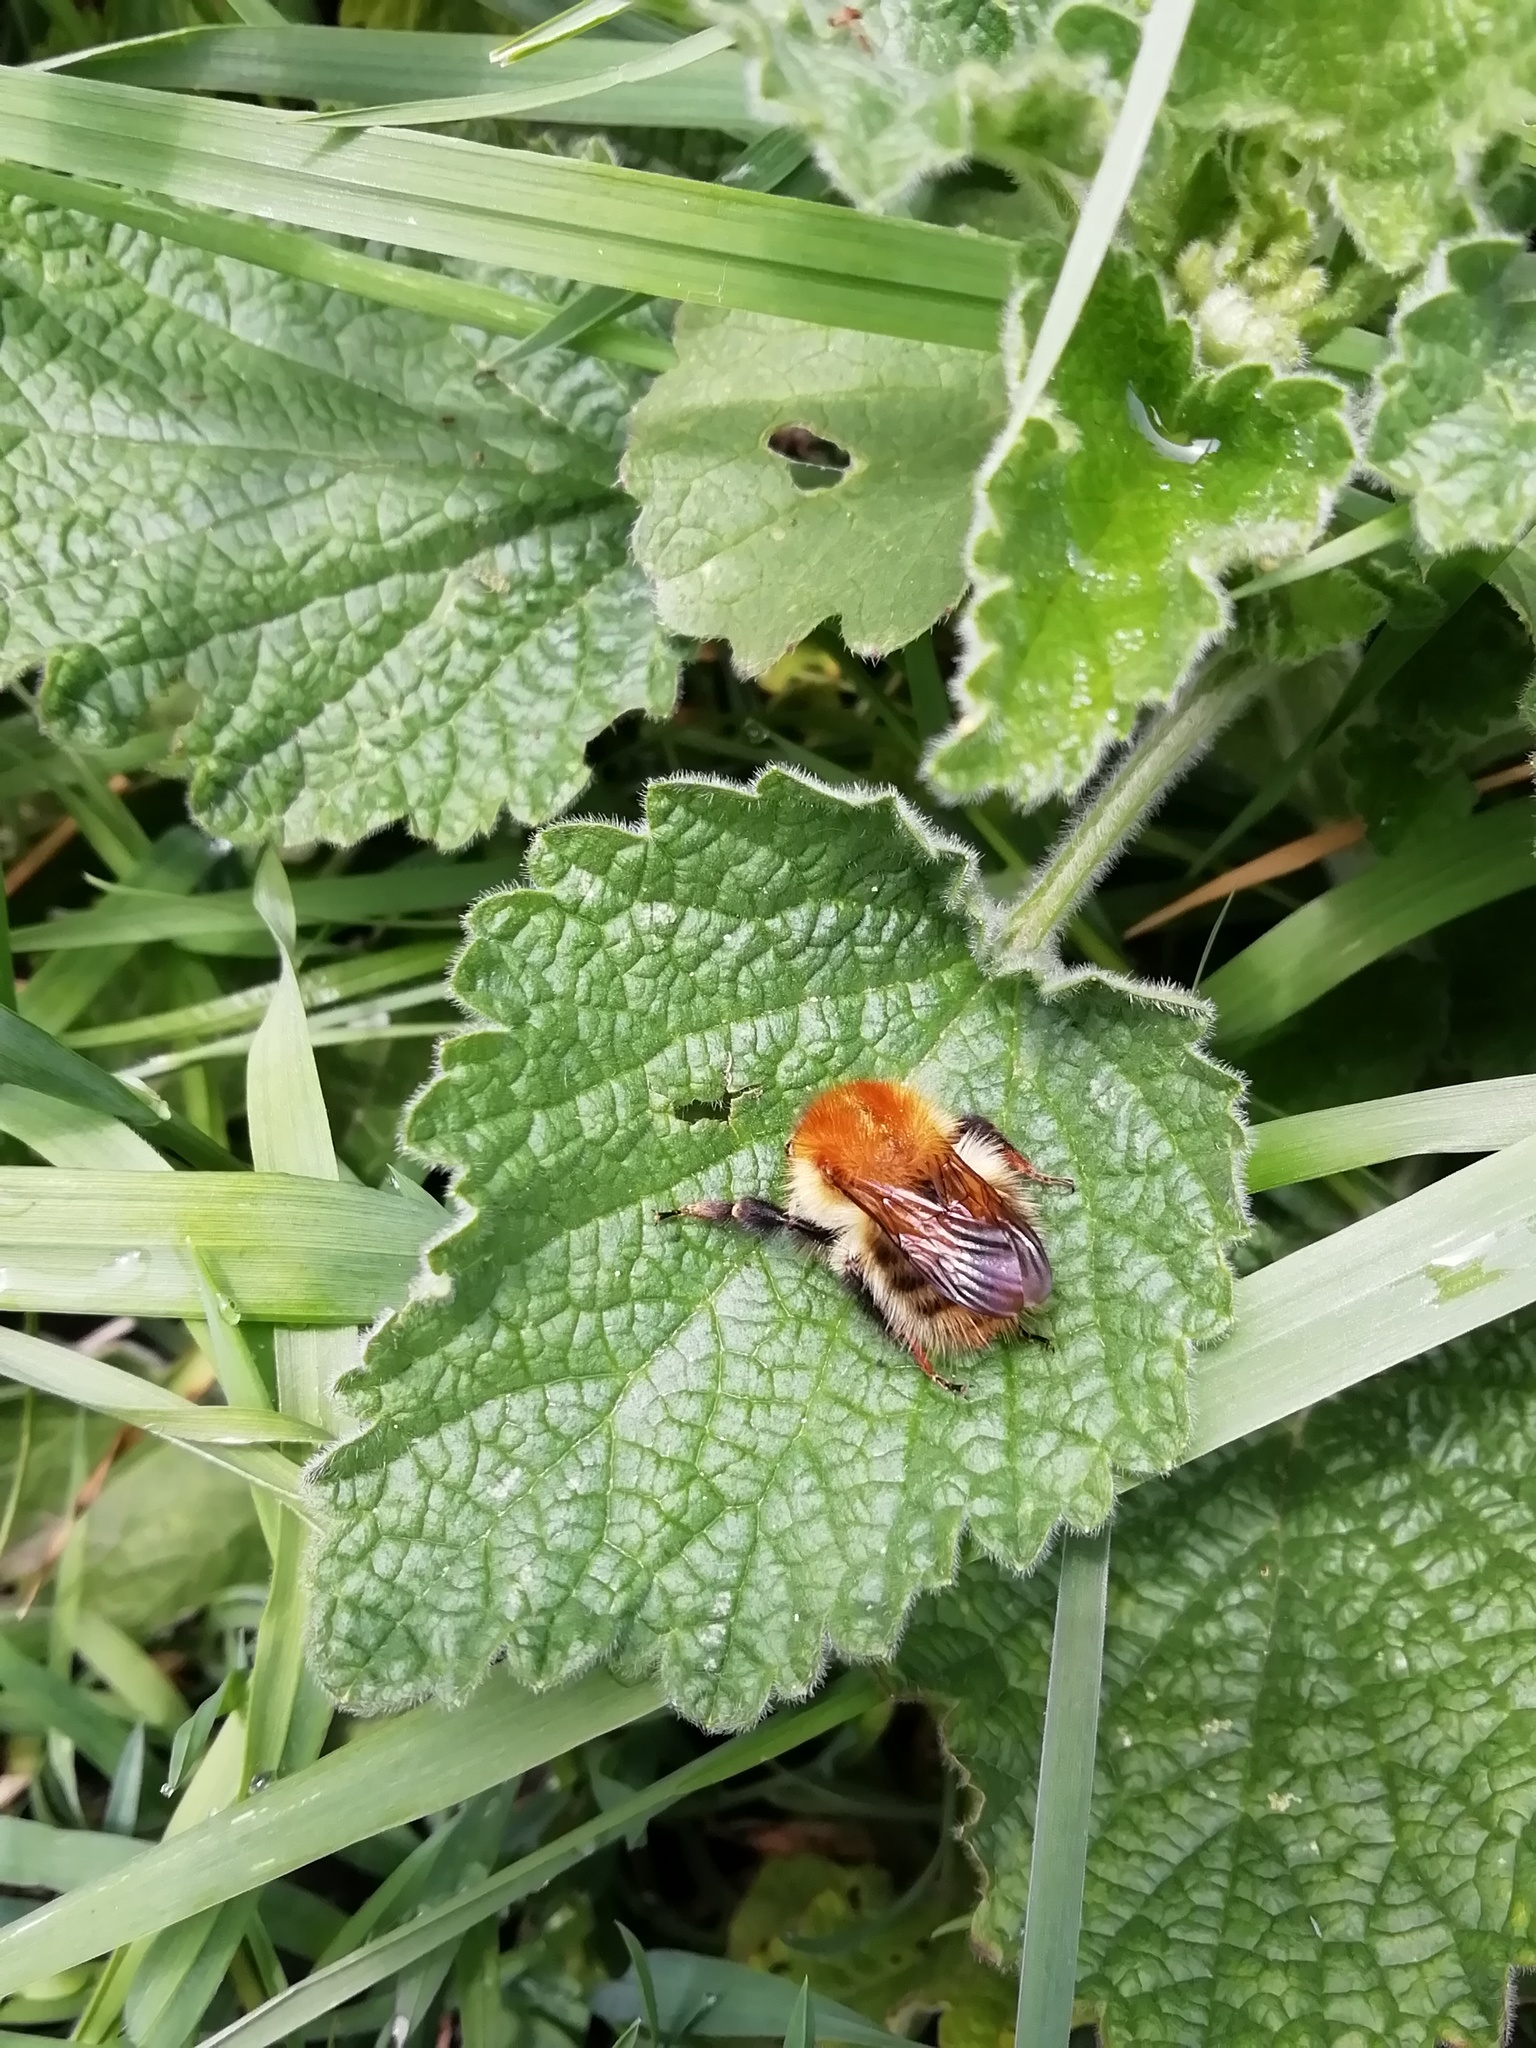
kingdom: Animalia
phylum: Arthropoda
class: Insecta
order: Hymenoptera
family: Apidae
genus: Bombus
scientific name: Bombus pascuorum
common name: Common carder bee
